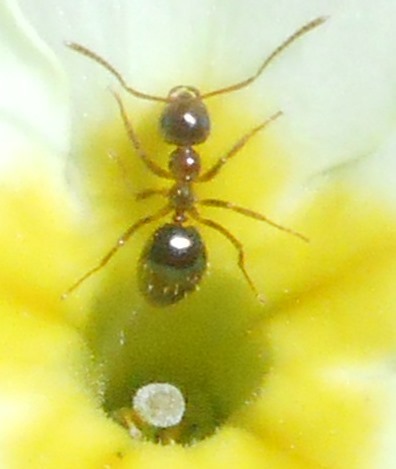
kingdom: Animalia
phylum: Arthropoda
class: Insecta
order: Hymenoptera
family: Formicidae
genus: Prenolepis
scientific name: Prenolepis nitens
